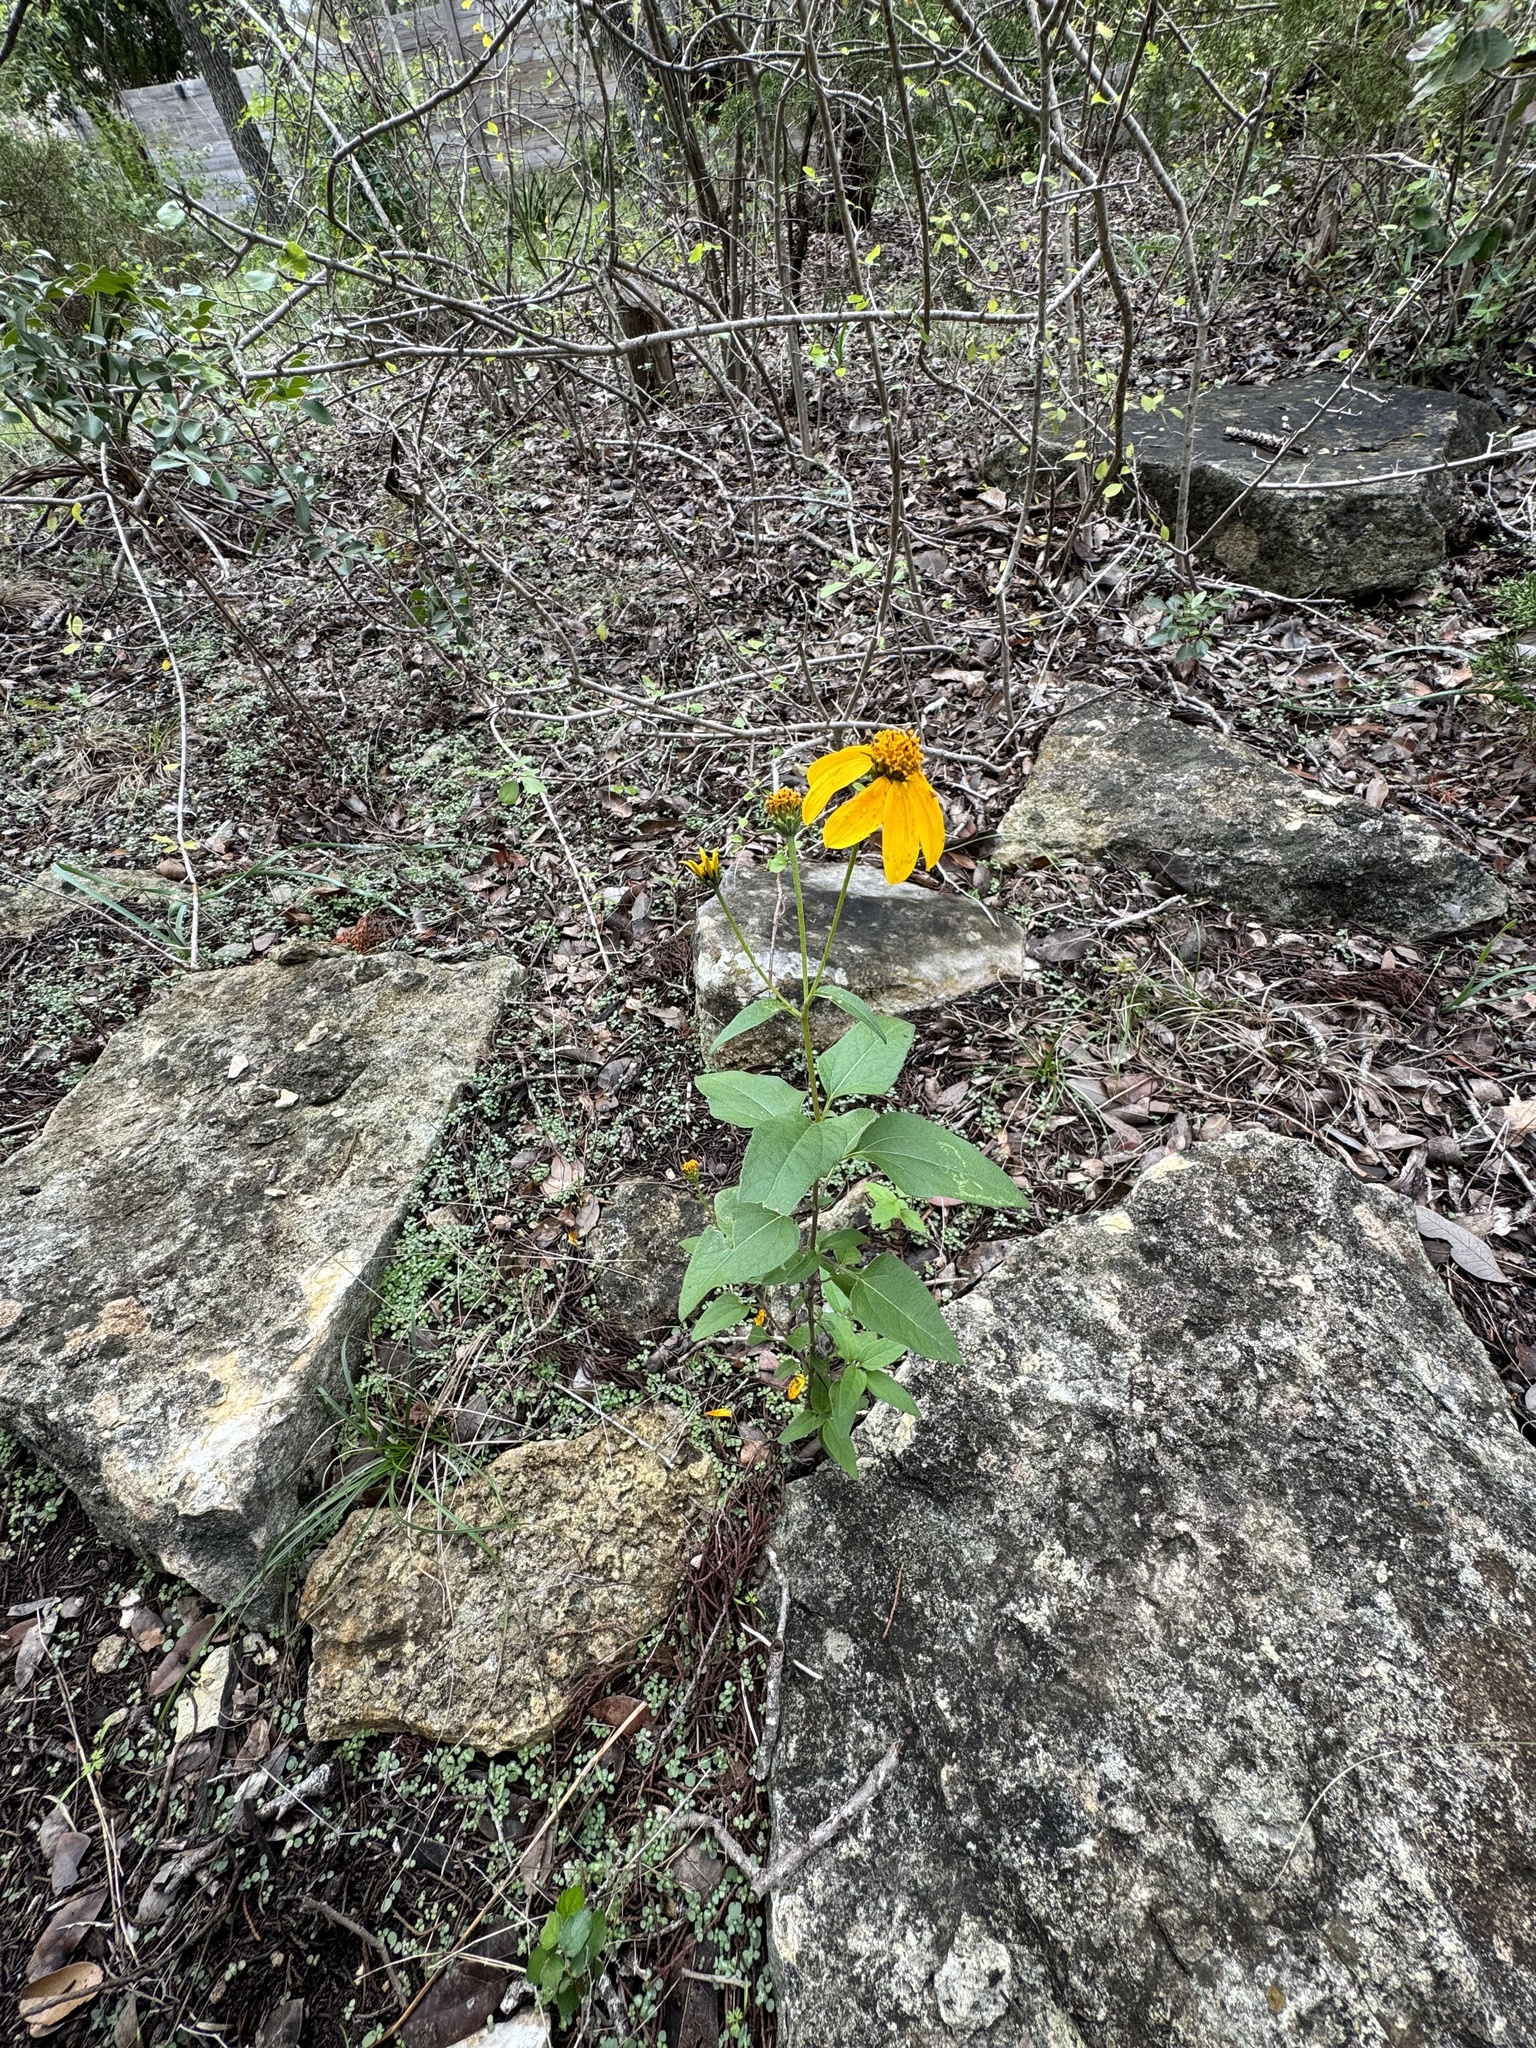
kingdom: Plantae
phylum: Tracheophyta
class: Magnoliopsida
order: Asterales
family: Asteraceae
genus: Viguiera
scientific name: Viguiera dentata
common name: Toothleaf
